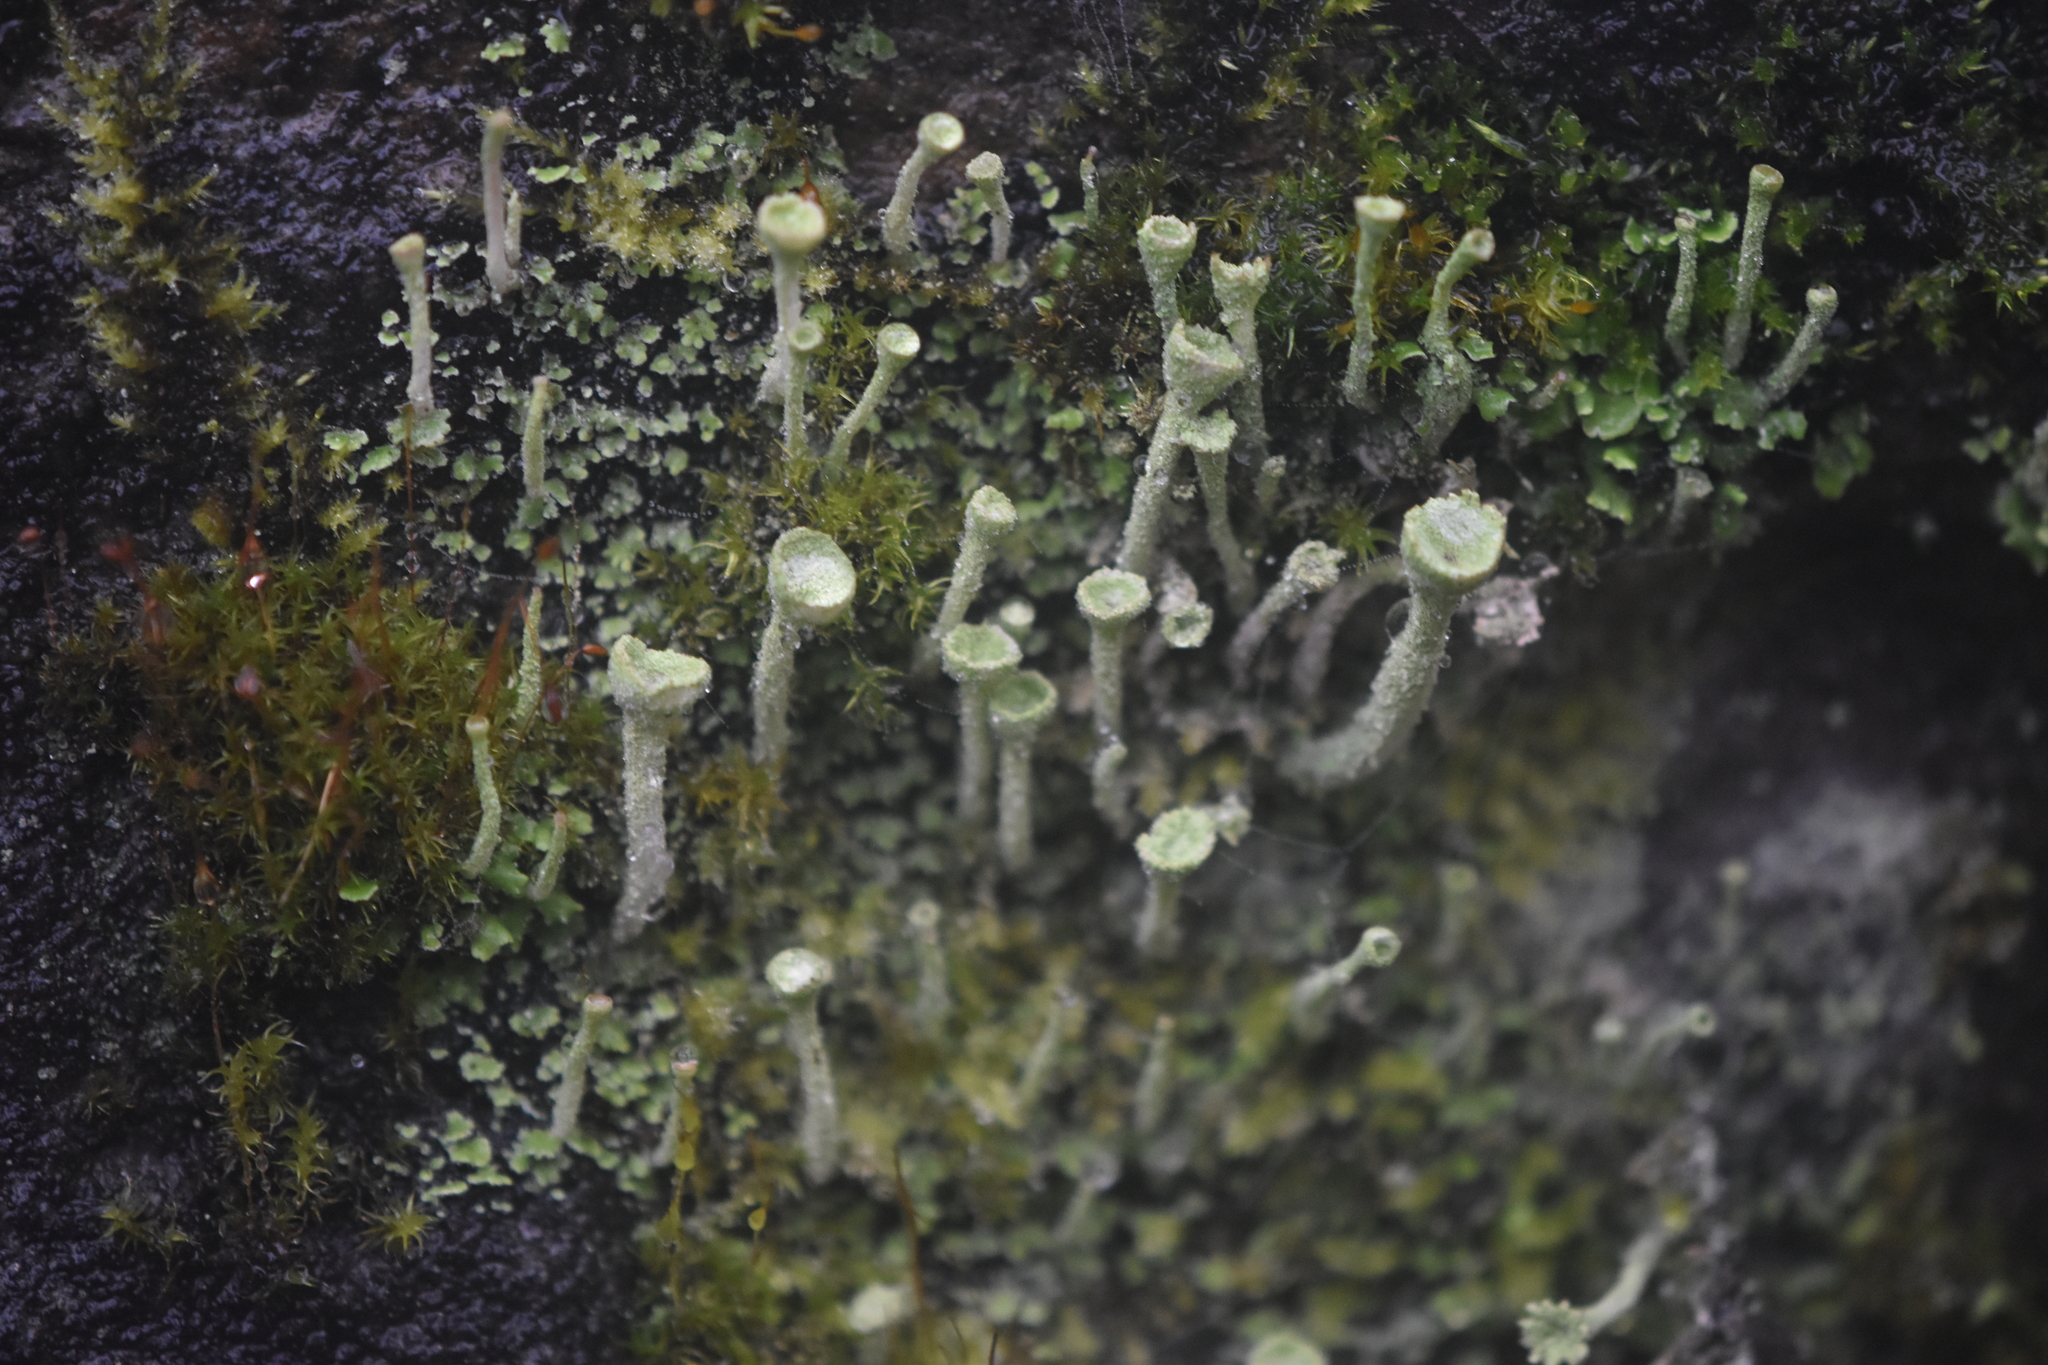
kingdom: Fungi
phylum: Ascomycota
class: Lecanoromycetes
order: Lecanorales
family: Cladoniaceae
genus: Cladonia
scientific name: Cladonia fimbriata
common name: Powdered trumpet lichen
